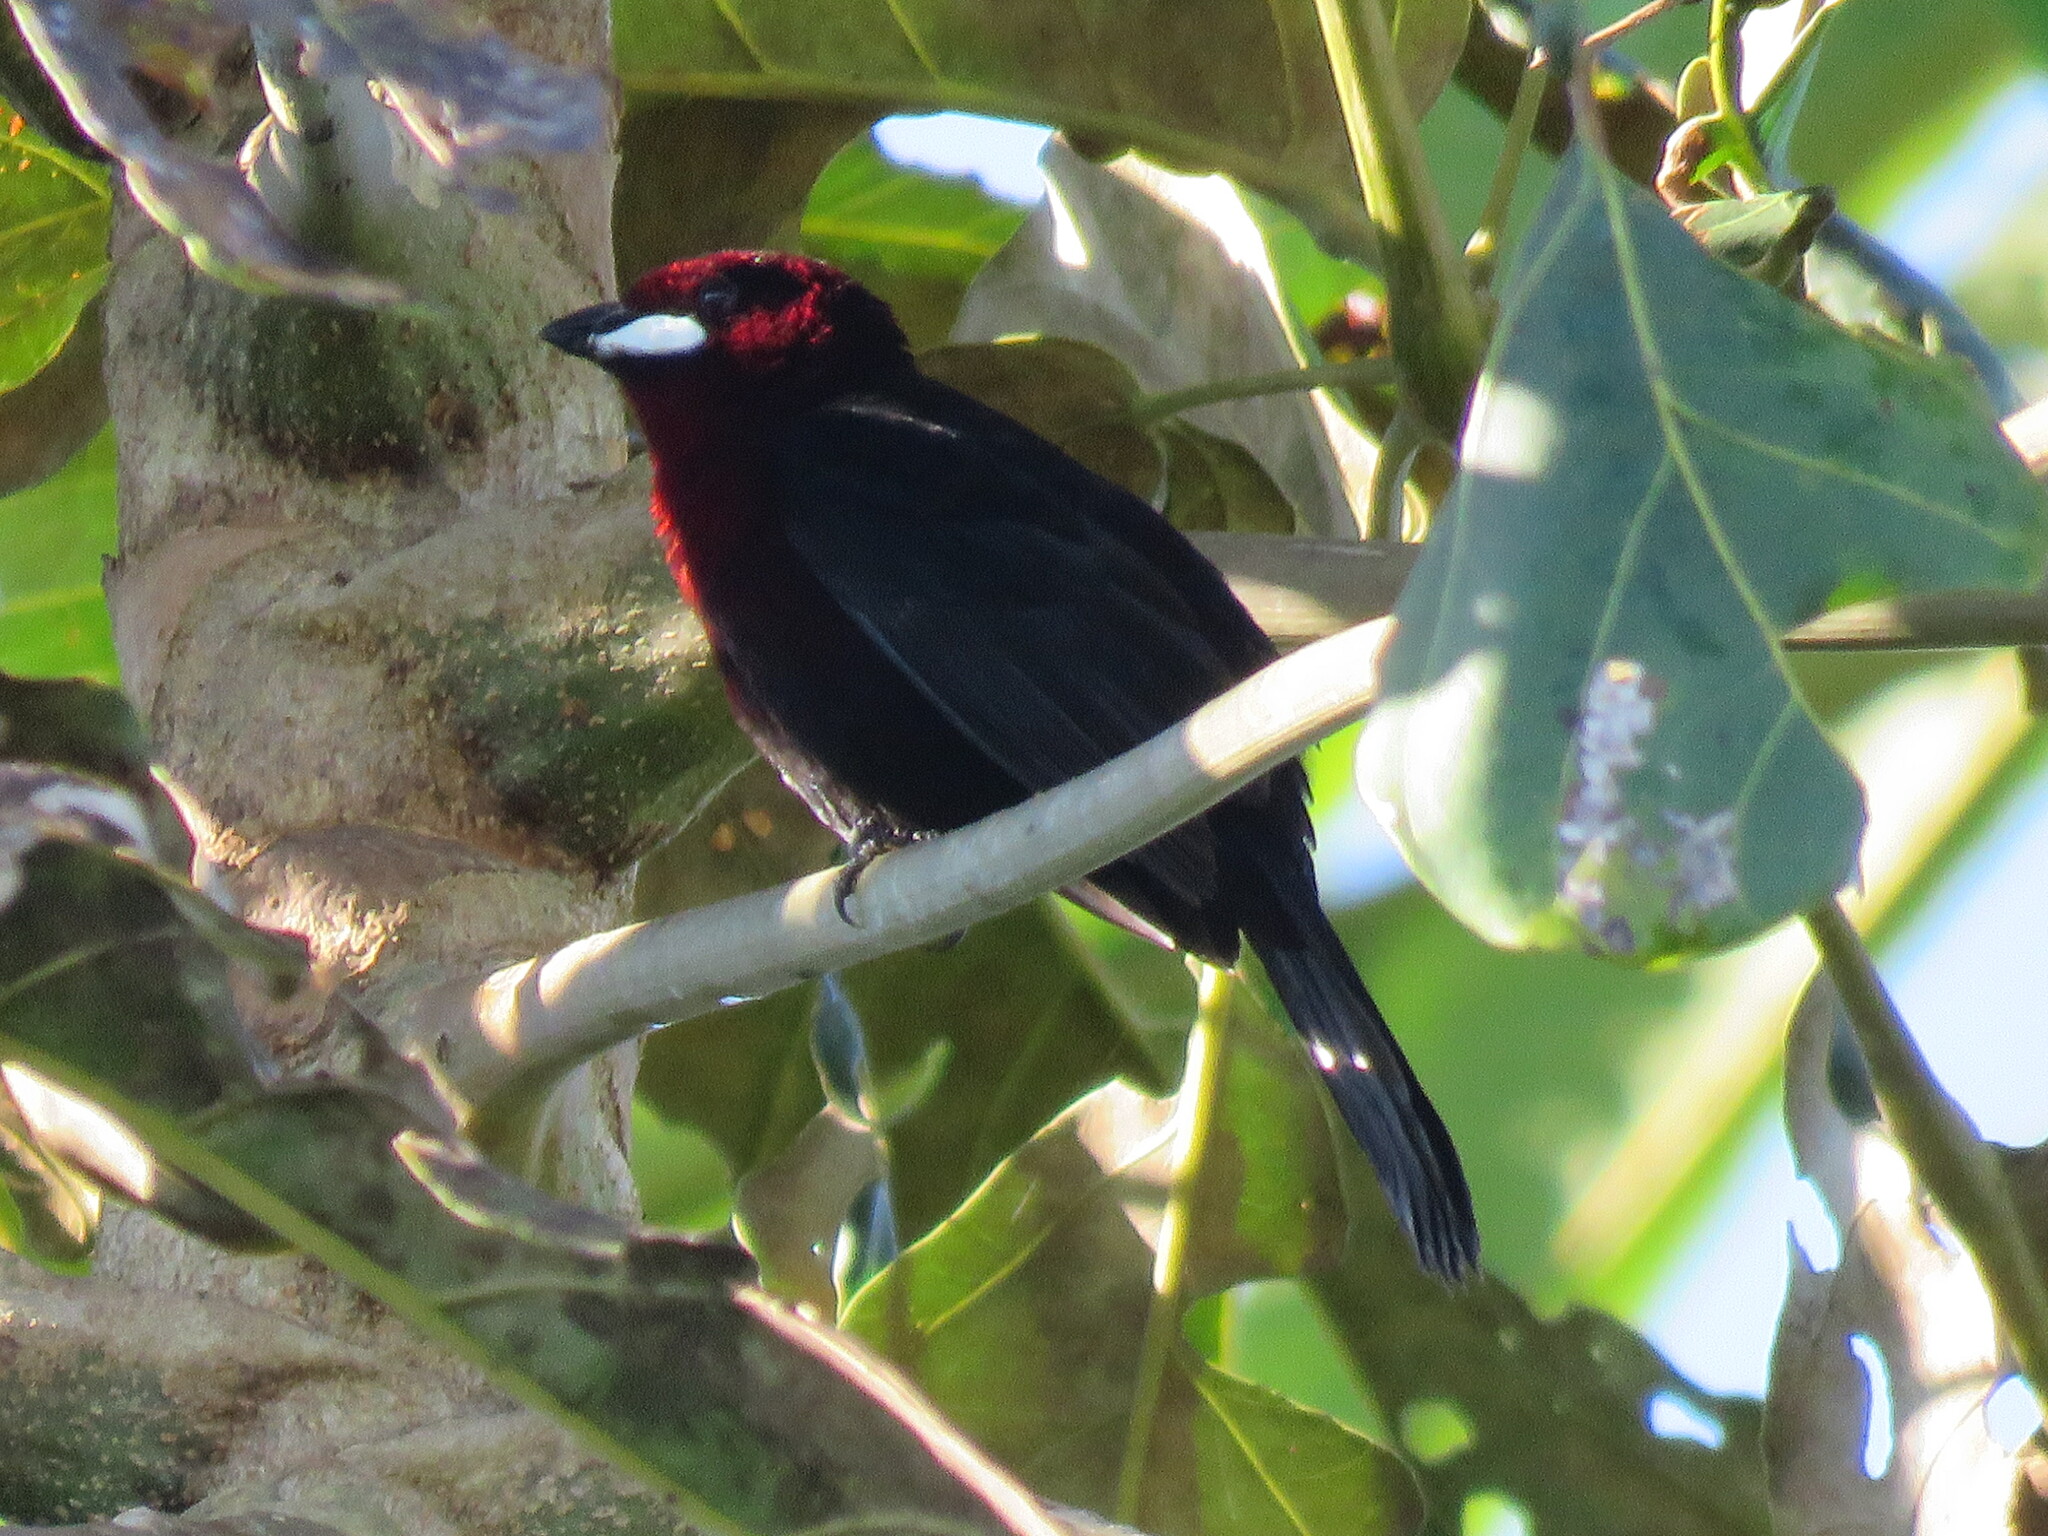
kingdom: Animalia
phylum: Chordata
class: Aves
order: Passeriformes
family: Thraupidae
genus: Ramphocelus
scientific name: Ramphocelus carbo
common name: Silver-beaked tanager
